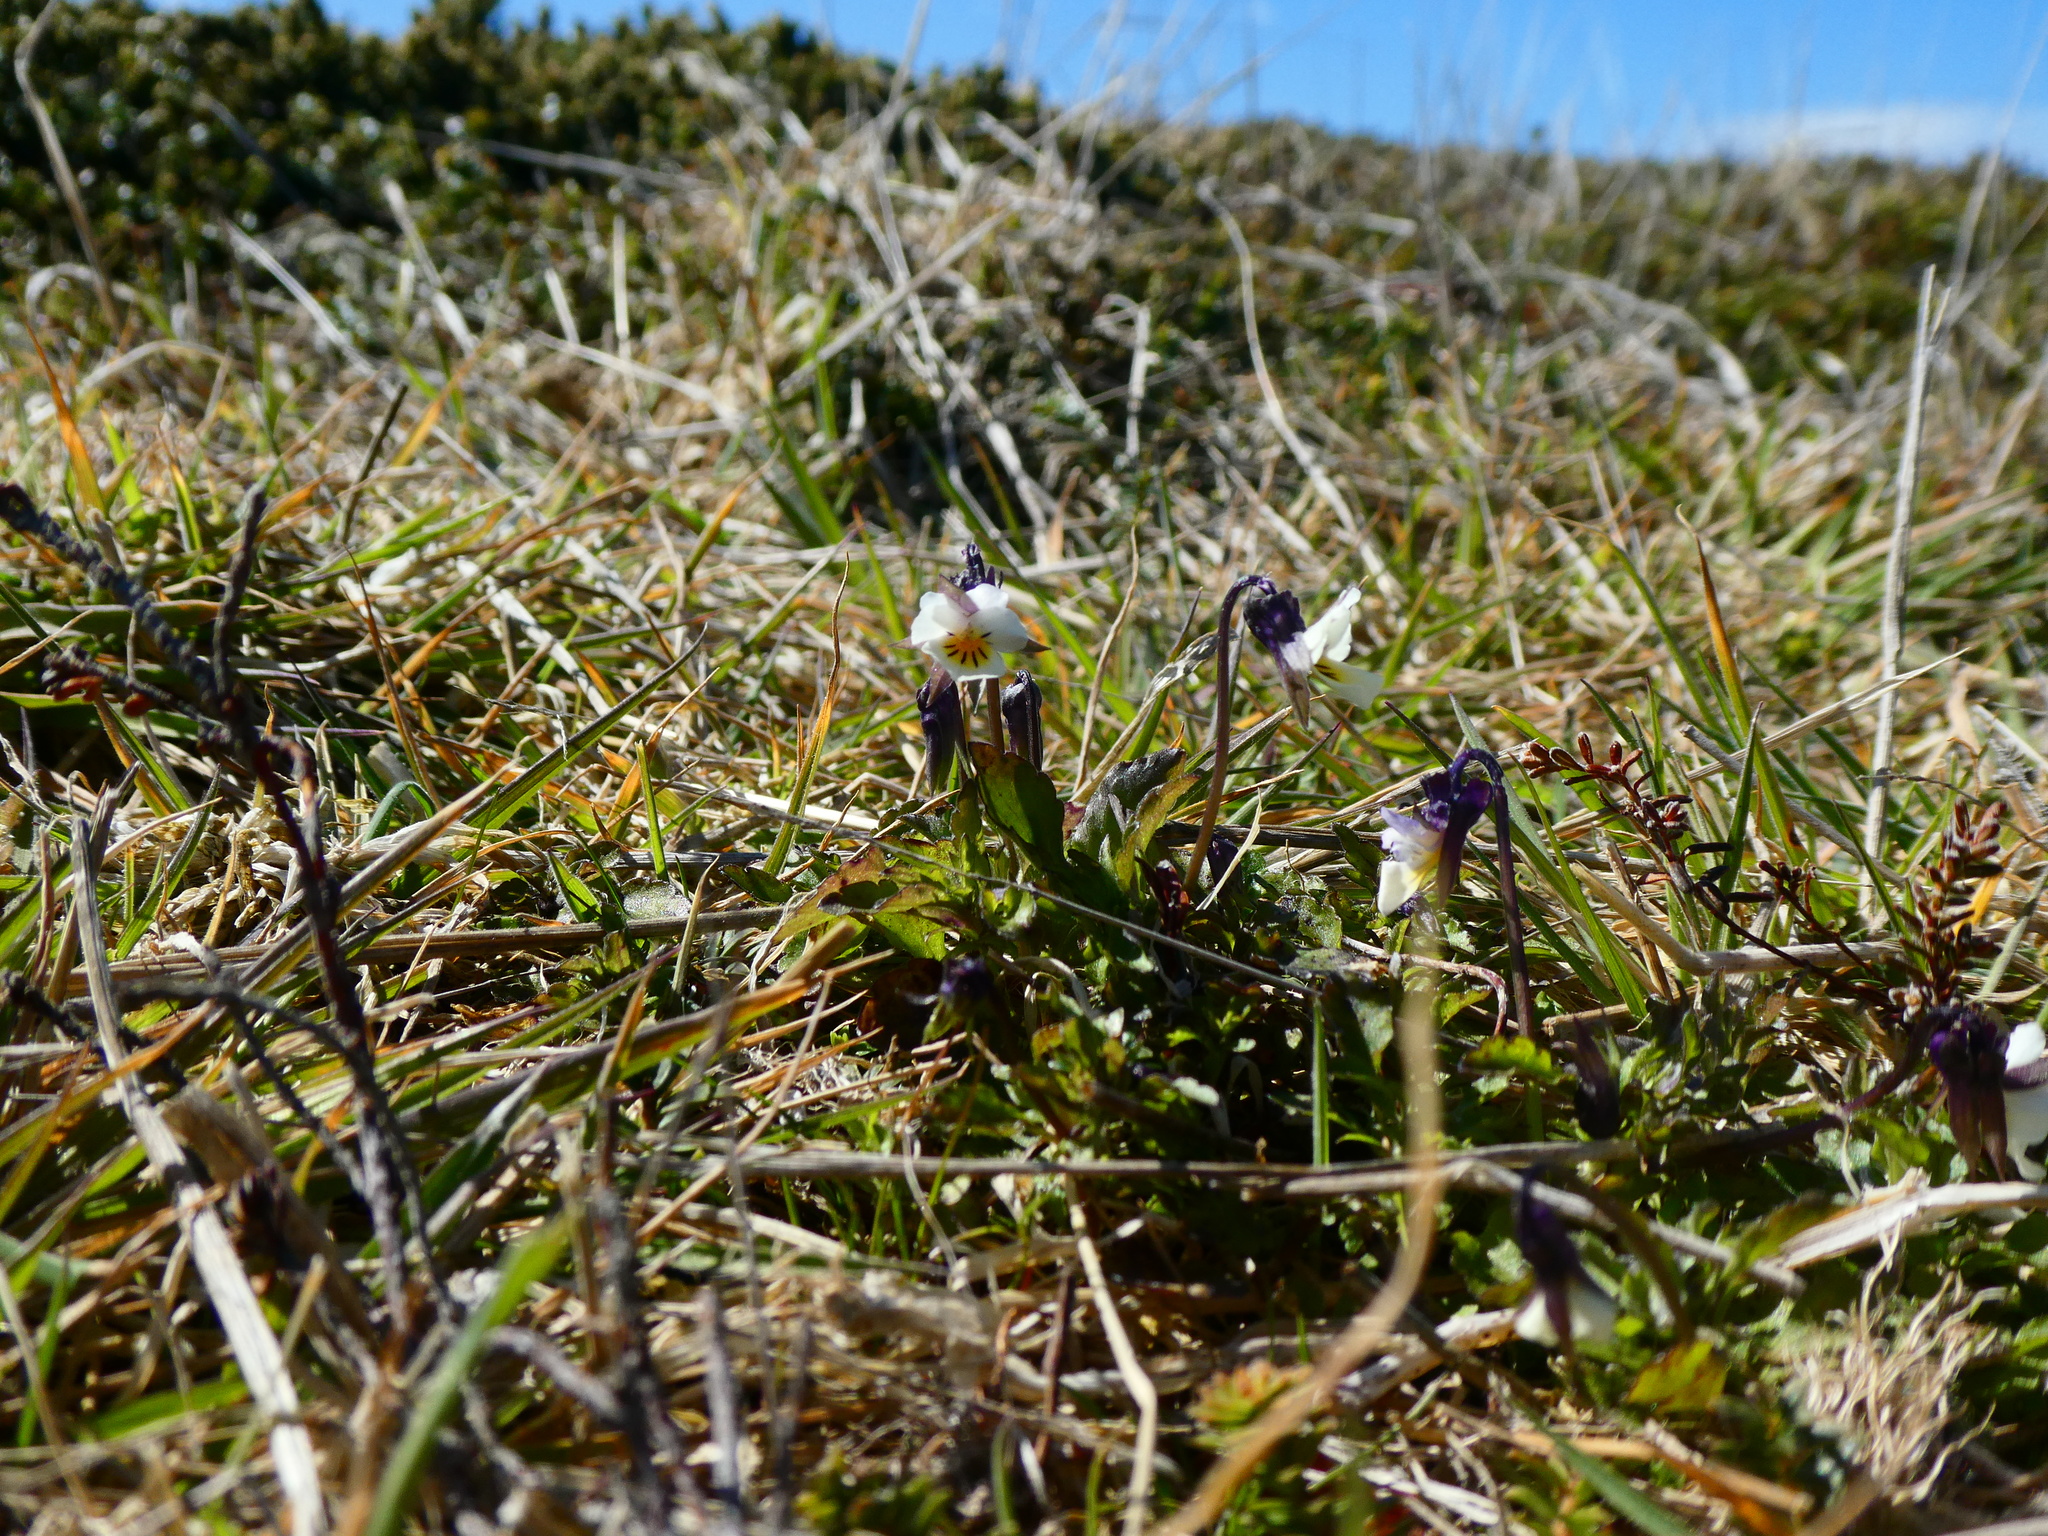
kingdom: Plantae
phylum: Tracheophyta
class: Magnoliopsida
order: Malpighiales
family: Violaceae
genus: Viola
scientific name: Viola arvensis
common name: Field pansy
